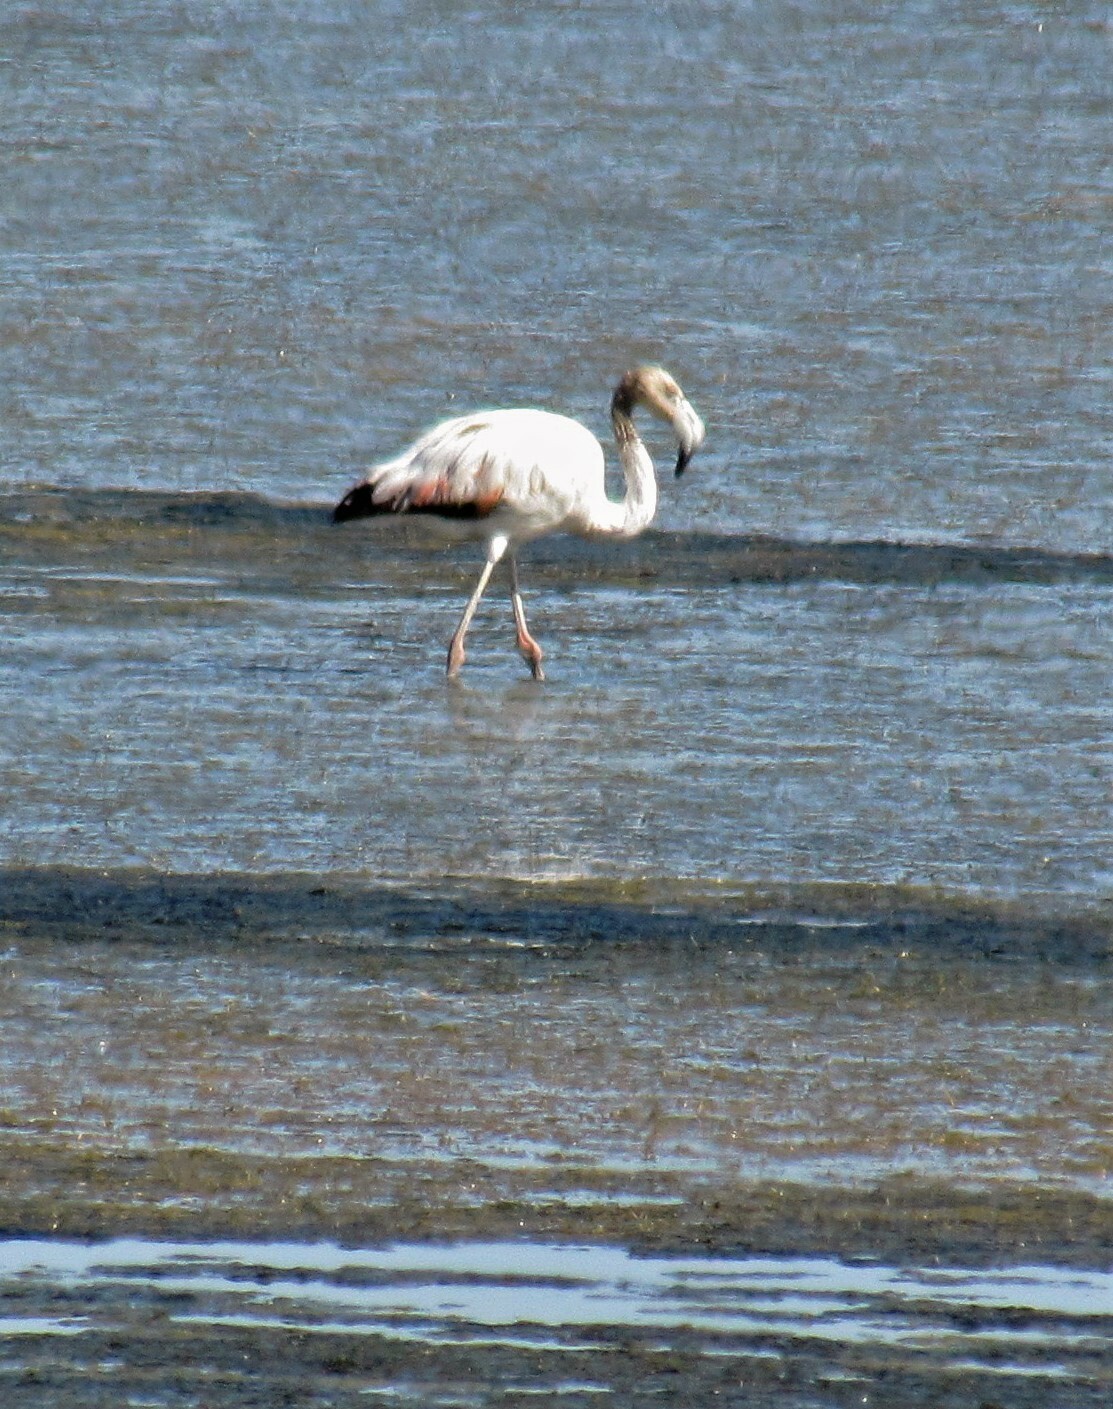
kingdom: Animalia
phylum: Chordata
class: Aves
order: Phoenicopteriformes
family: Phoenicopteridae
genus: Phoenicopterus
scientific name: Phoenicopterus chilensis
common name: Chilean flamingo
